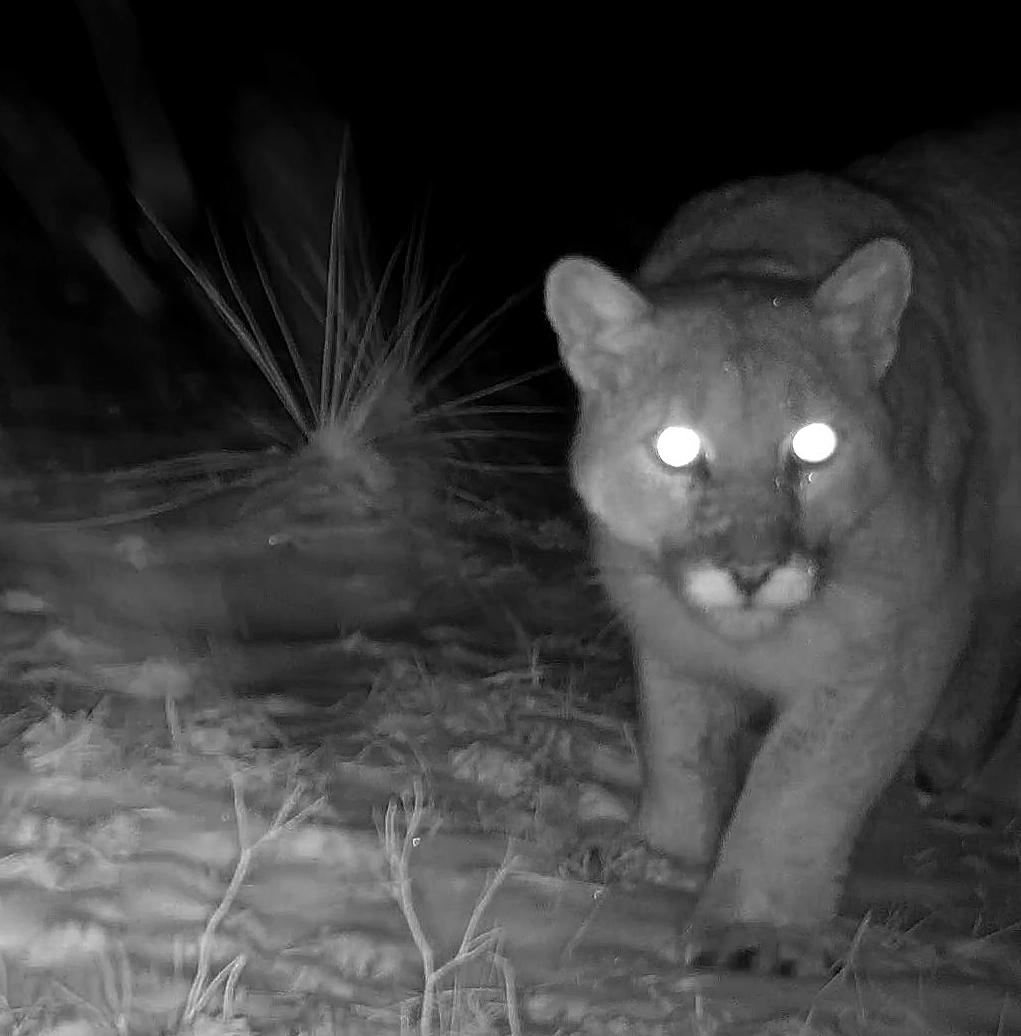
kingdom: Animalia
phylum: Chordata
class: Mammalia
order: Carnivora
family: Felidae
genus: Puma
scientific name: Puma concolor
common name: Puma
